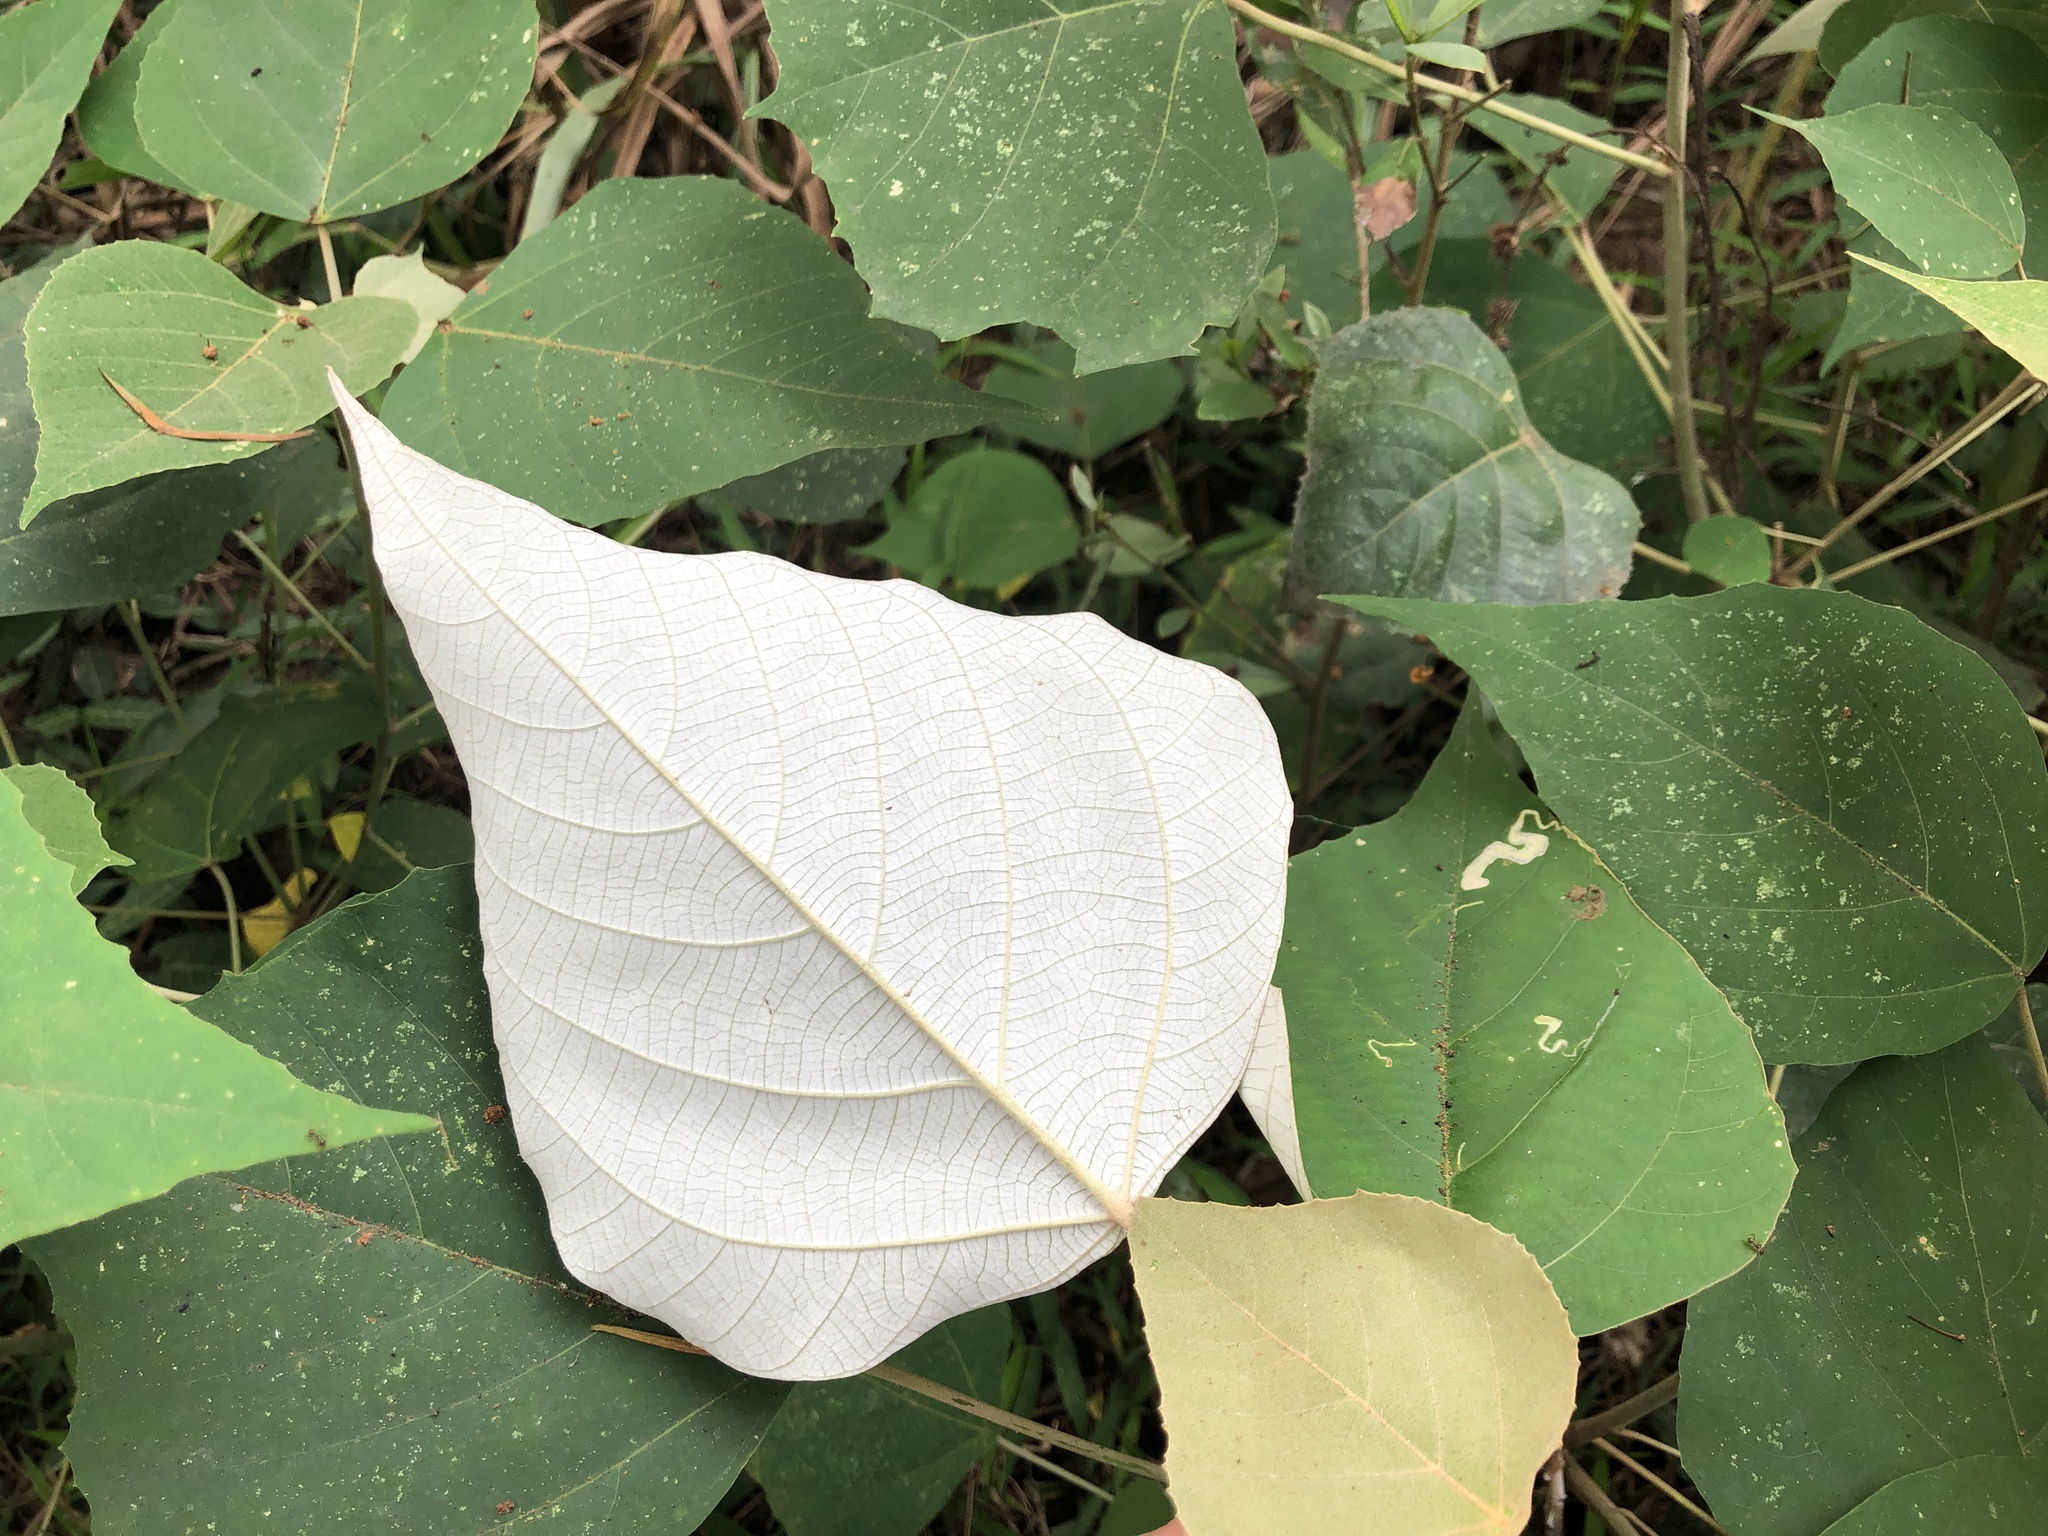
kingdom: Plantae
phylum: Tracheophyta
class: Magnoliopsida
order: Malpighiales
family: Euphorbiaceae
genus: Mallotus
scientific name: Mallotus paniculatus
